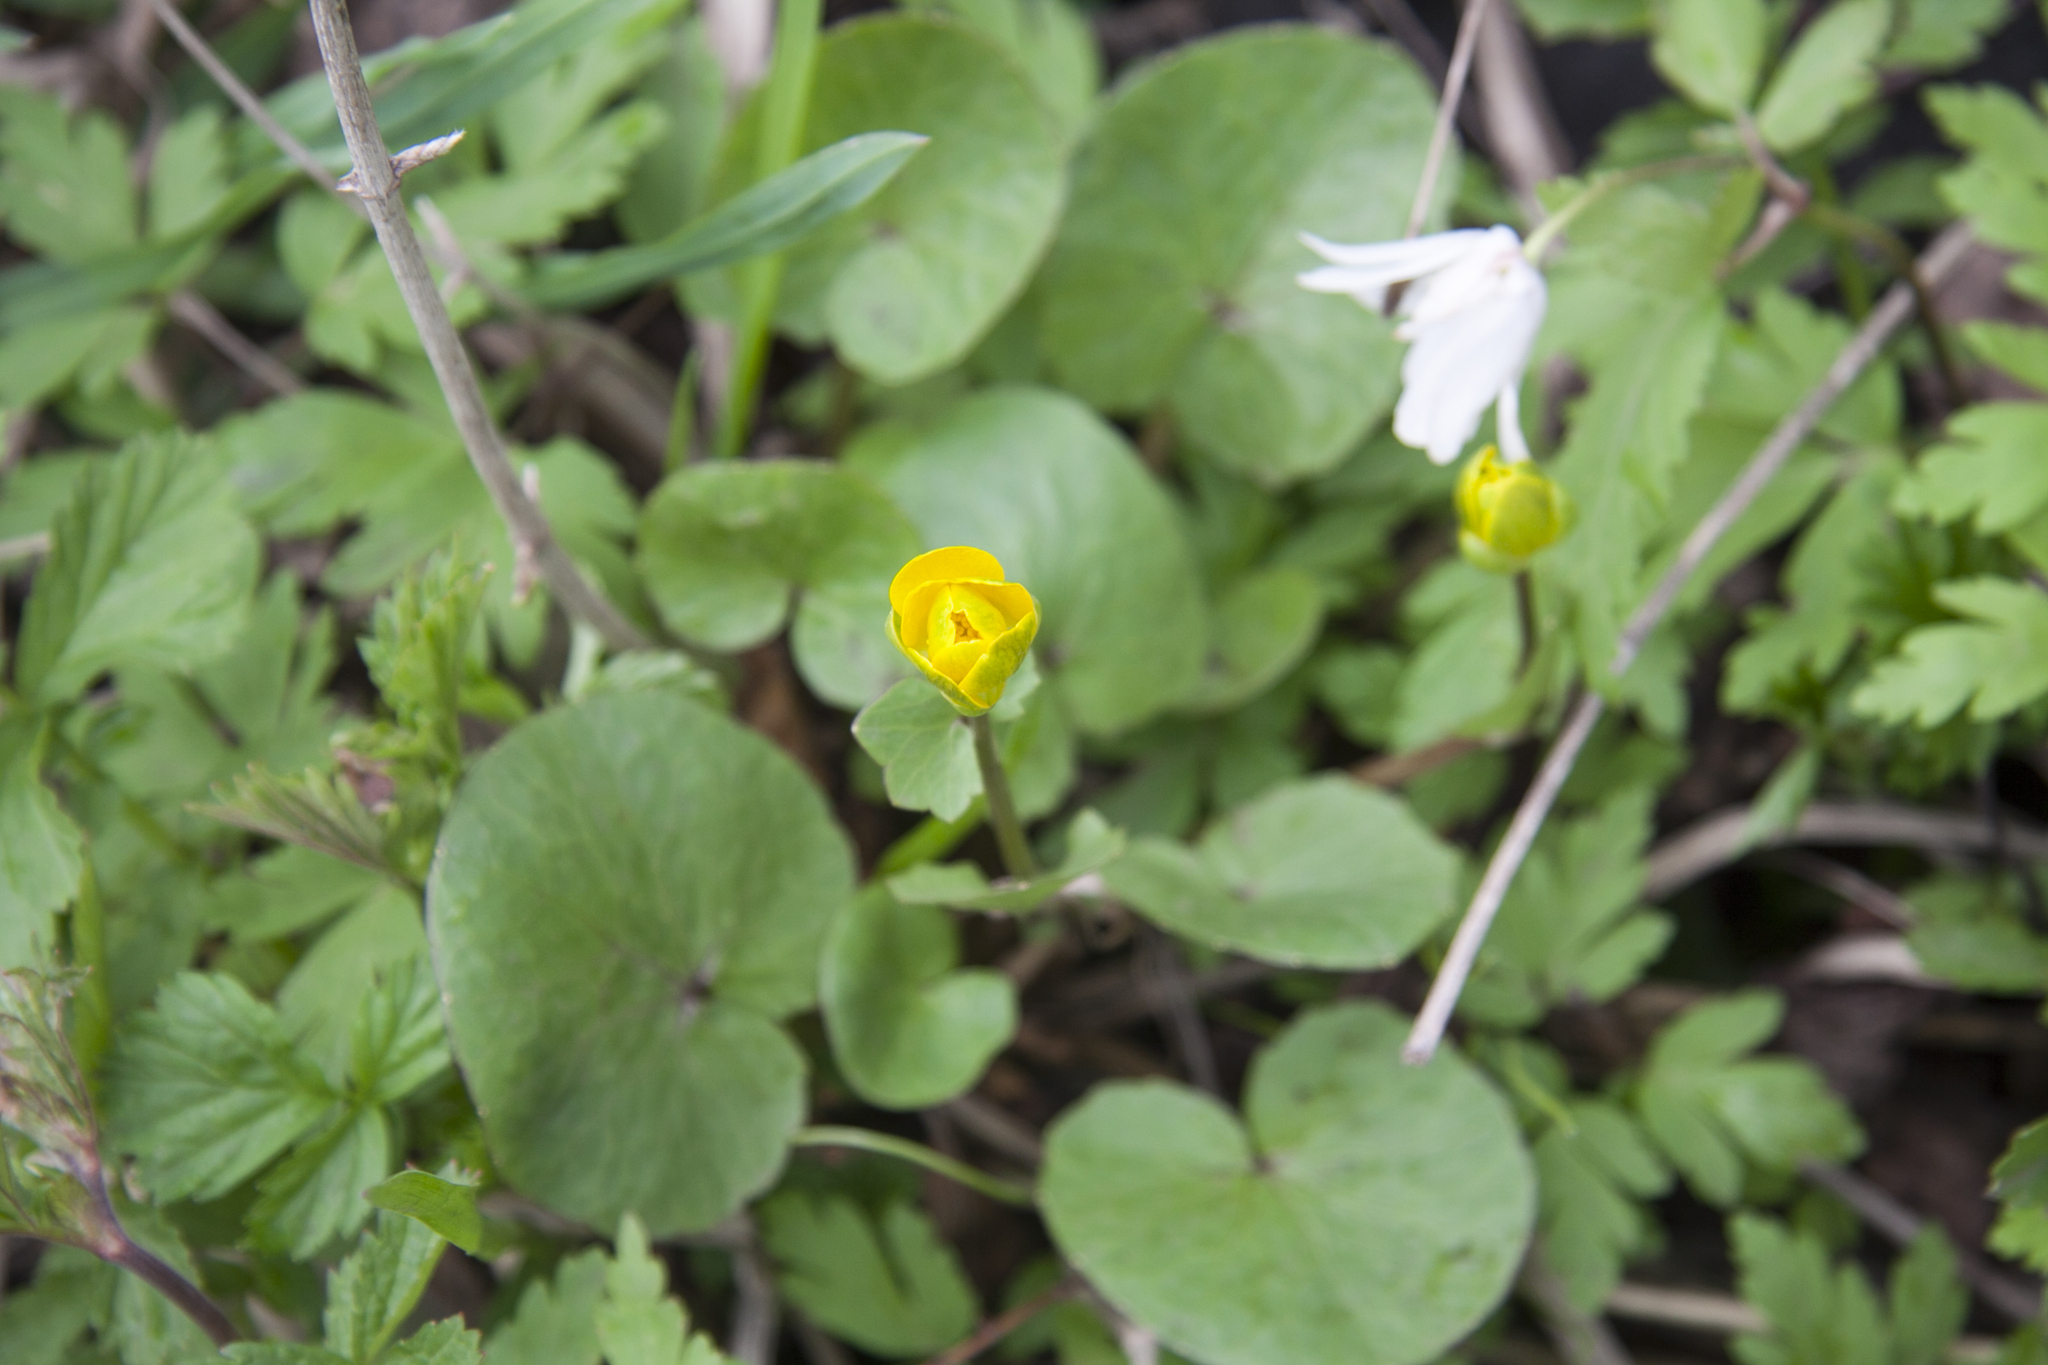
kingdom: Plantae
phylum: Tracheophyta
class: Magnoliopsida
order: Ranunculales
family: Ranunculaceae
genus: Ficaria
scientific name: Ficaria verna
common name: Lesser celandine
